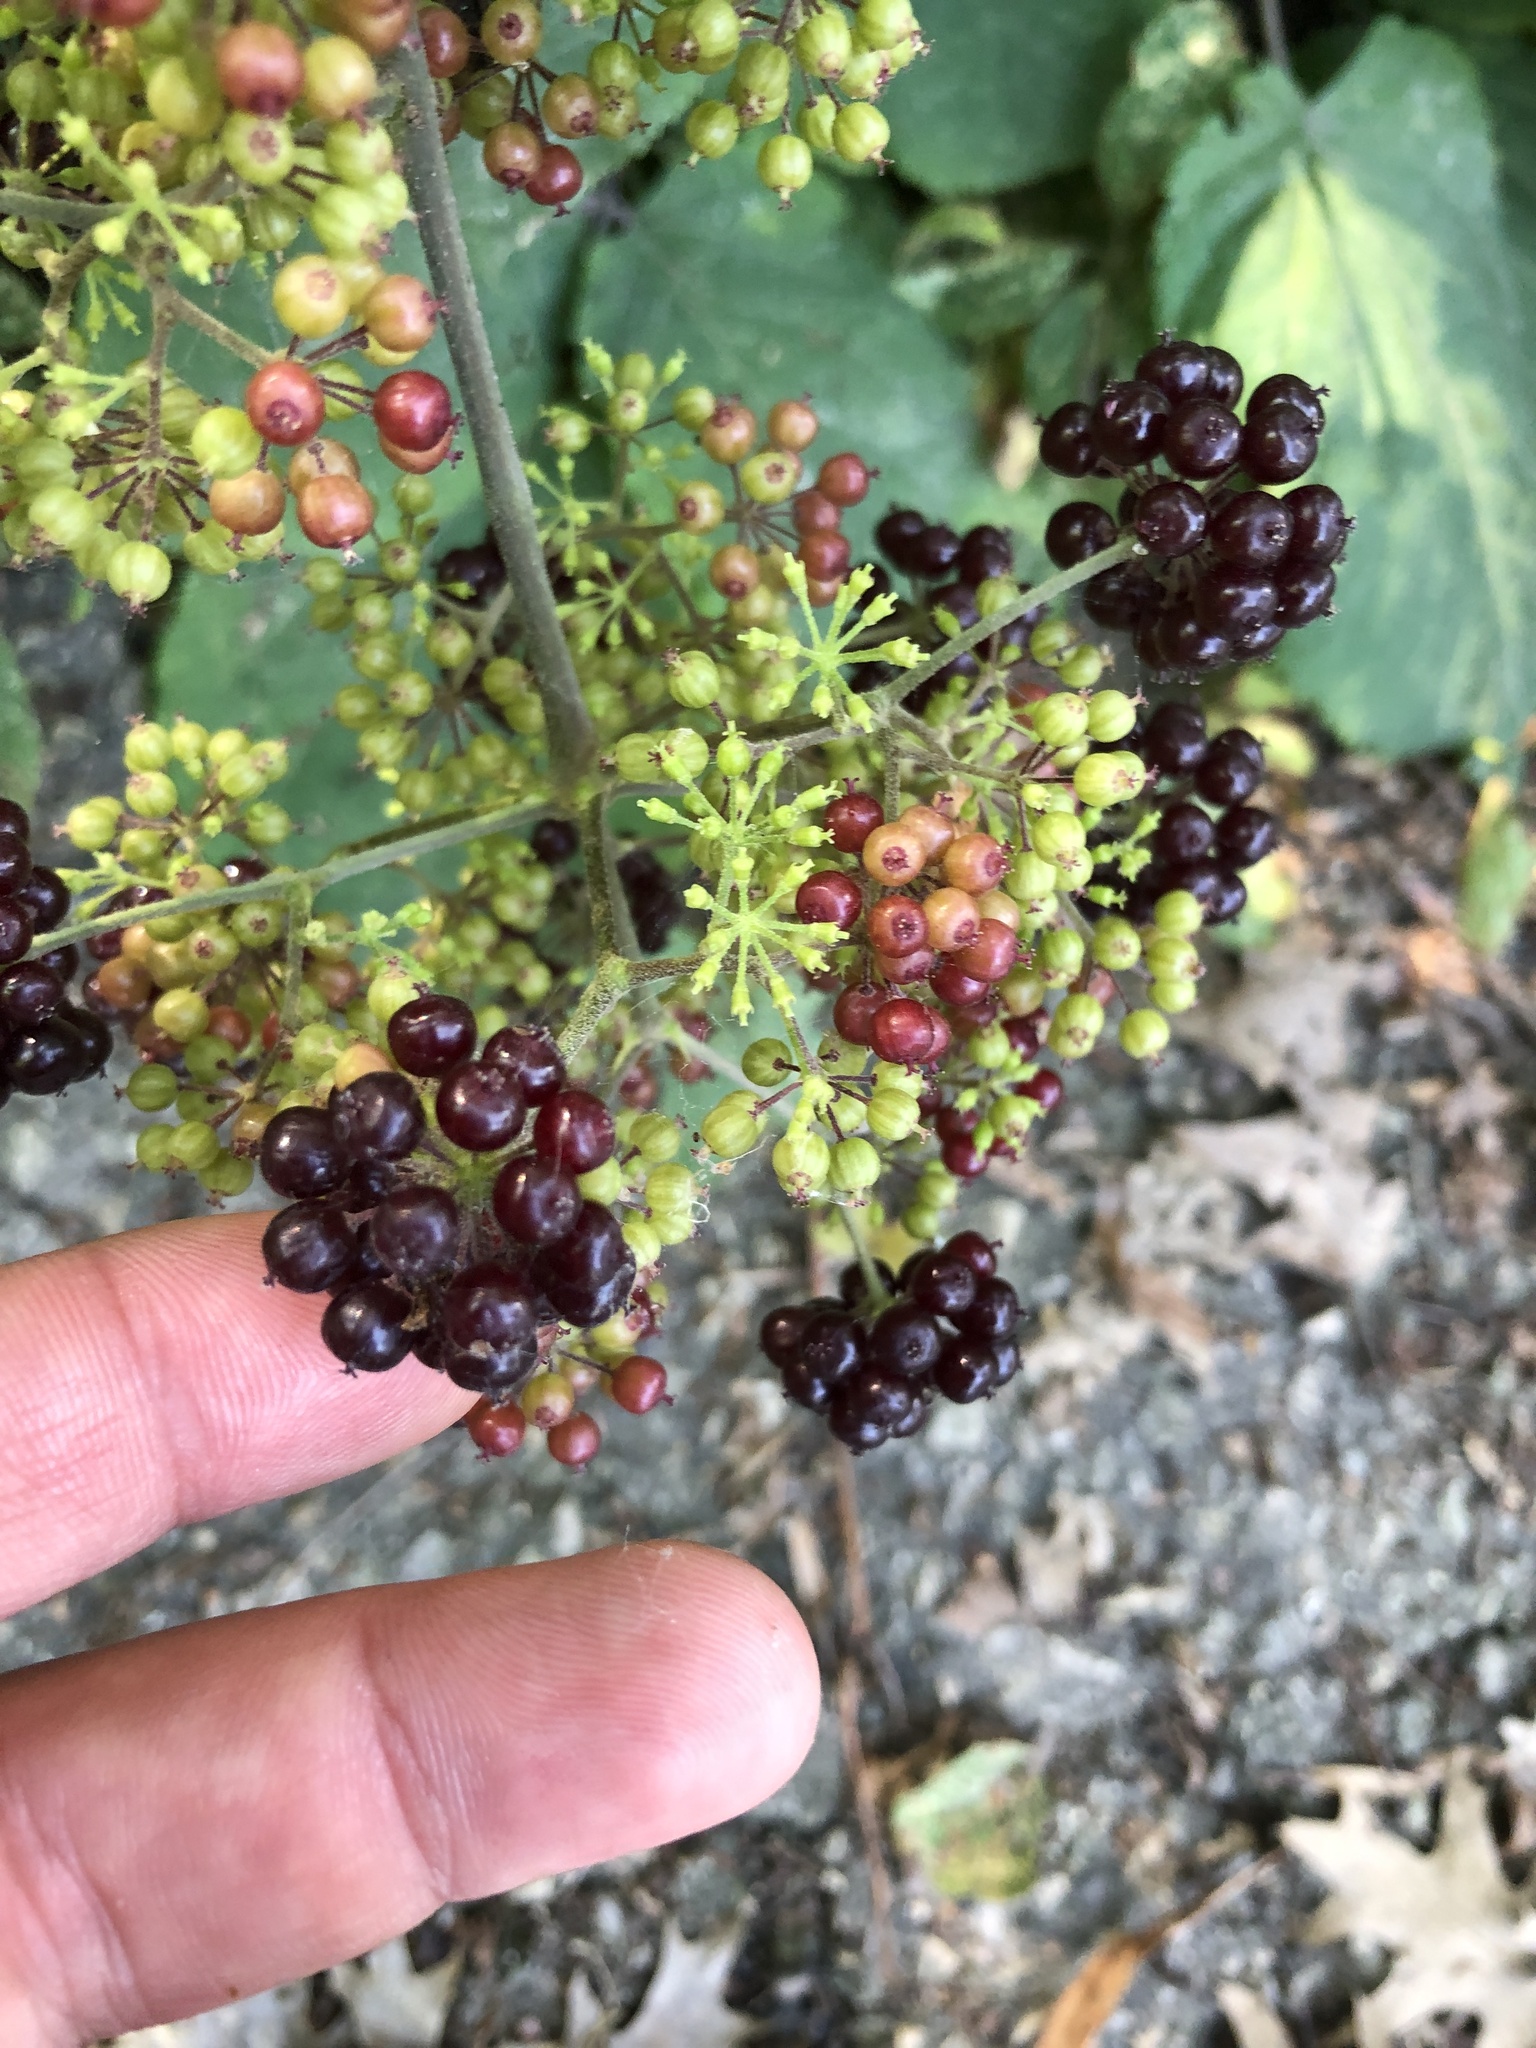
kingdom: Plantae
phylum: Tracheophyta
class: Magnoliopsida
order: Apiales
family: Araliaceae
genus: Aralia
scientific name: Aralia racemosa
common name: American-spikenard
